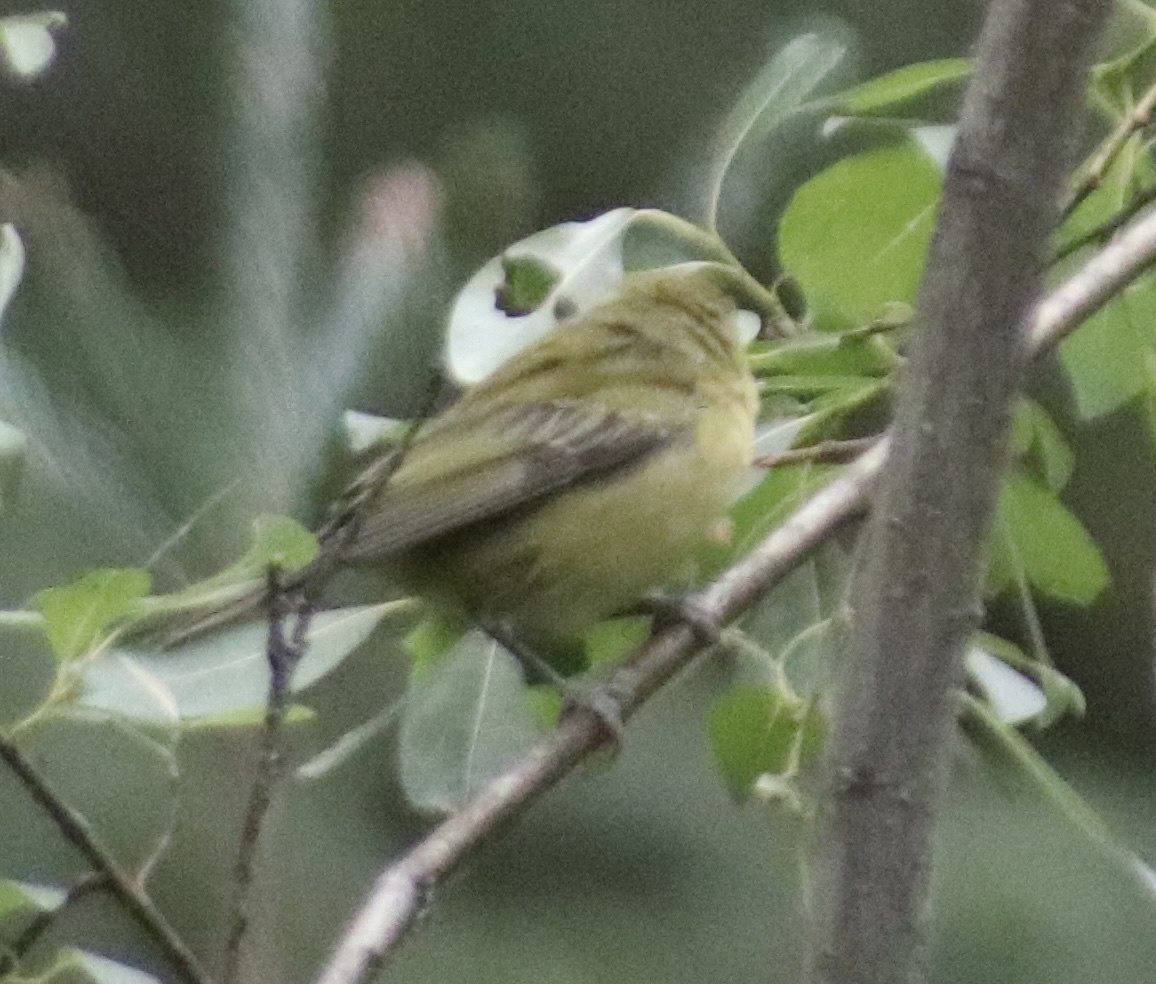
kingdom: Animalia
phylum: Chordata
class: Aves
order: Passeriformes
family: Parulidae
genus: Leiothlypis
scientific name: Leiothlypis peregrina
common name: Tennessee warbler
